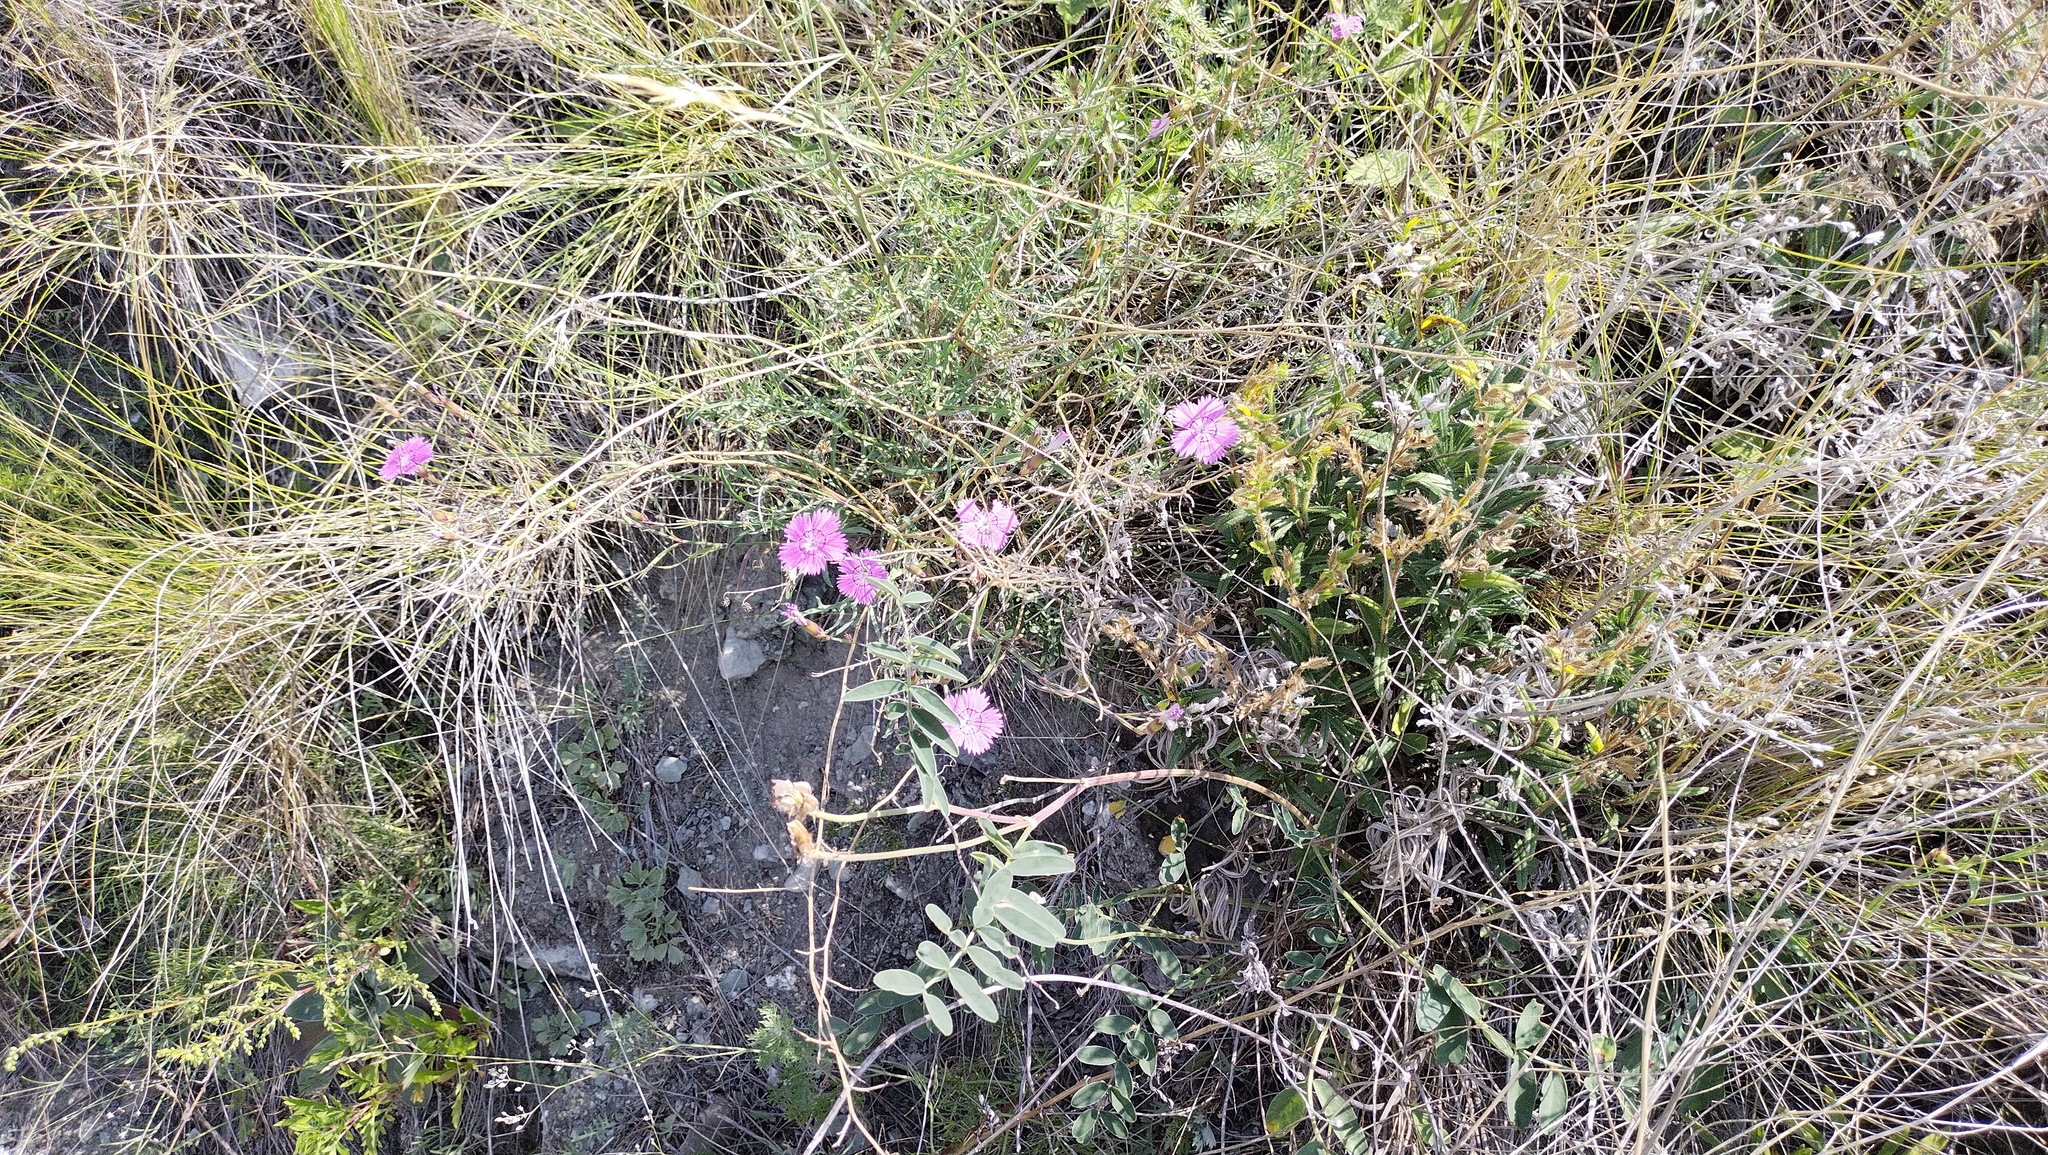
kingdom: Plantae
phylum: Tracheophyta
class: Magnoliopsida
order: Caryophyllales
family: Caryophyllaceae
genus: Dianthus
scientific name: Dianthus chinensis
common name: Rainbow pink
